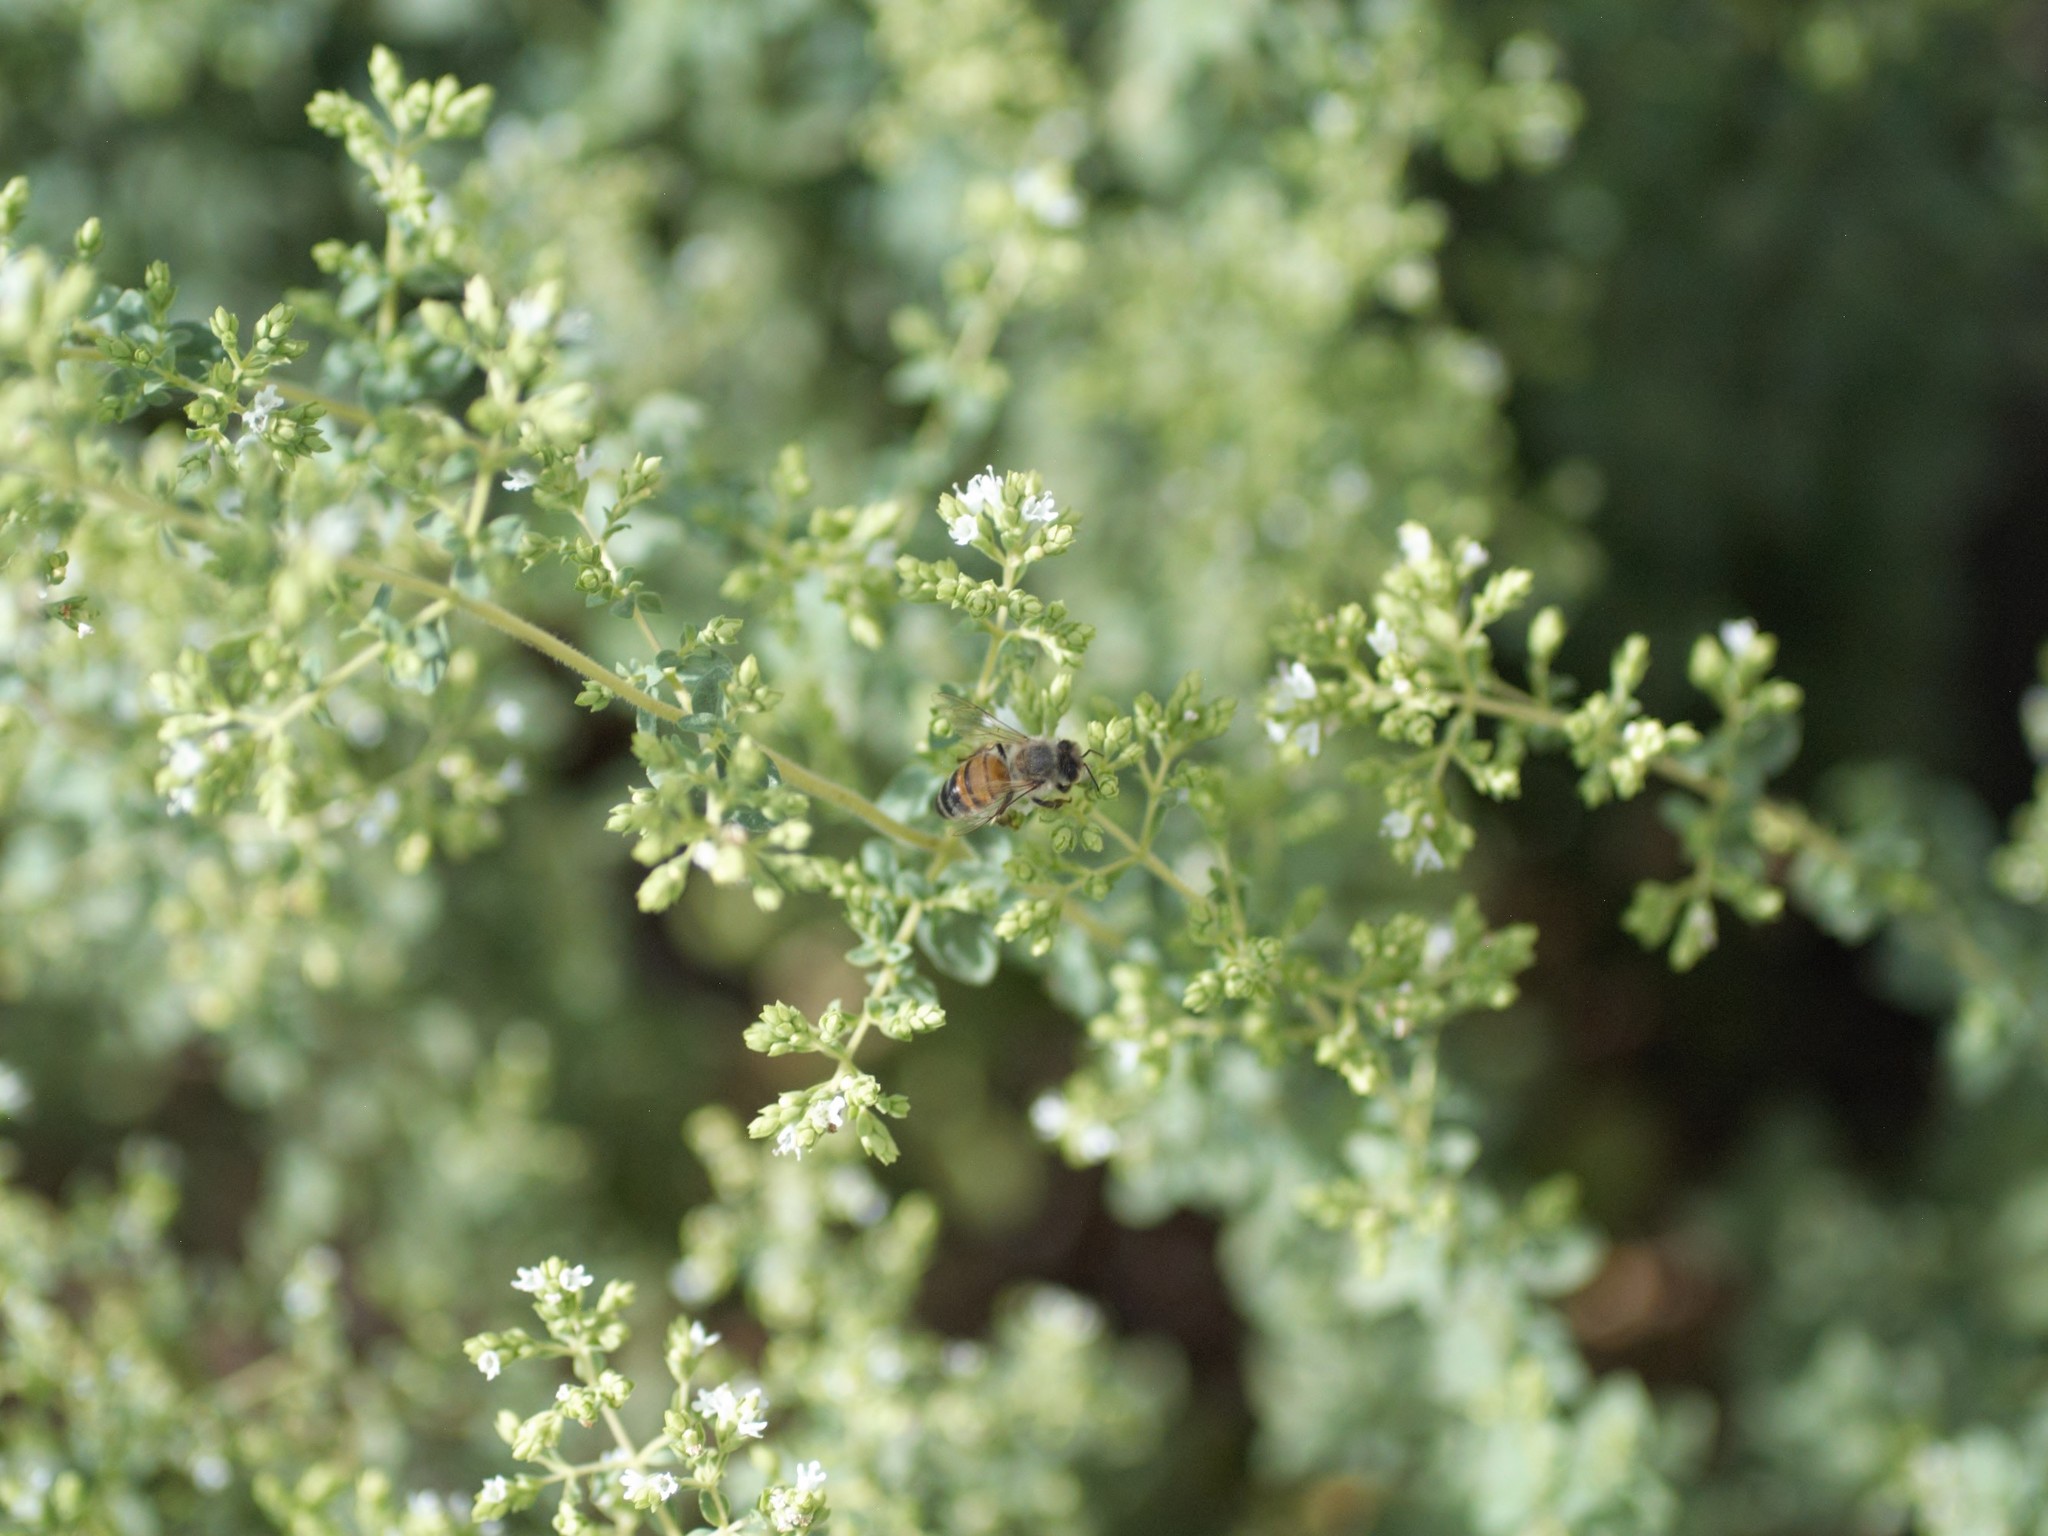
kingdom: Animalia
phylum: Arthropoda
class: Insecta
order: Hymenoptera
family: Apidae
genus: Apis
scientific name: Apis mellifera
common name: Honey bee
